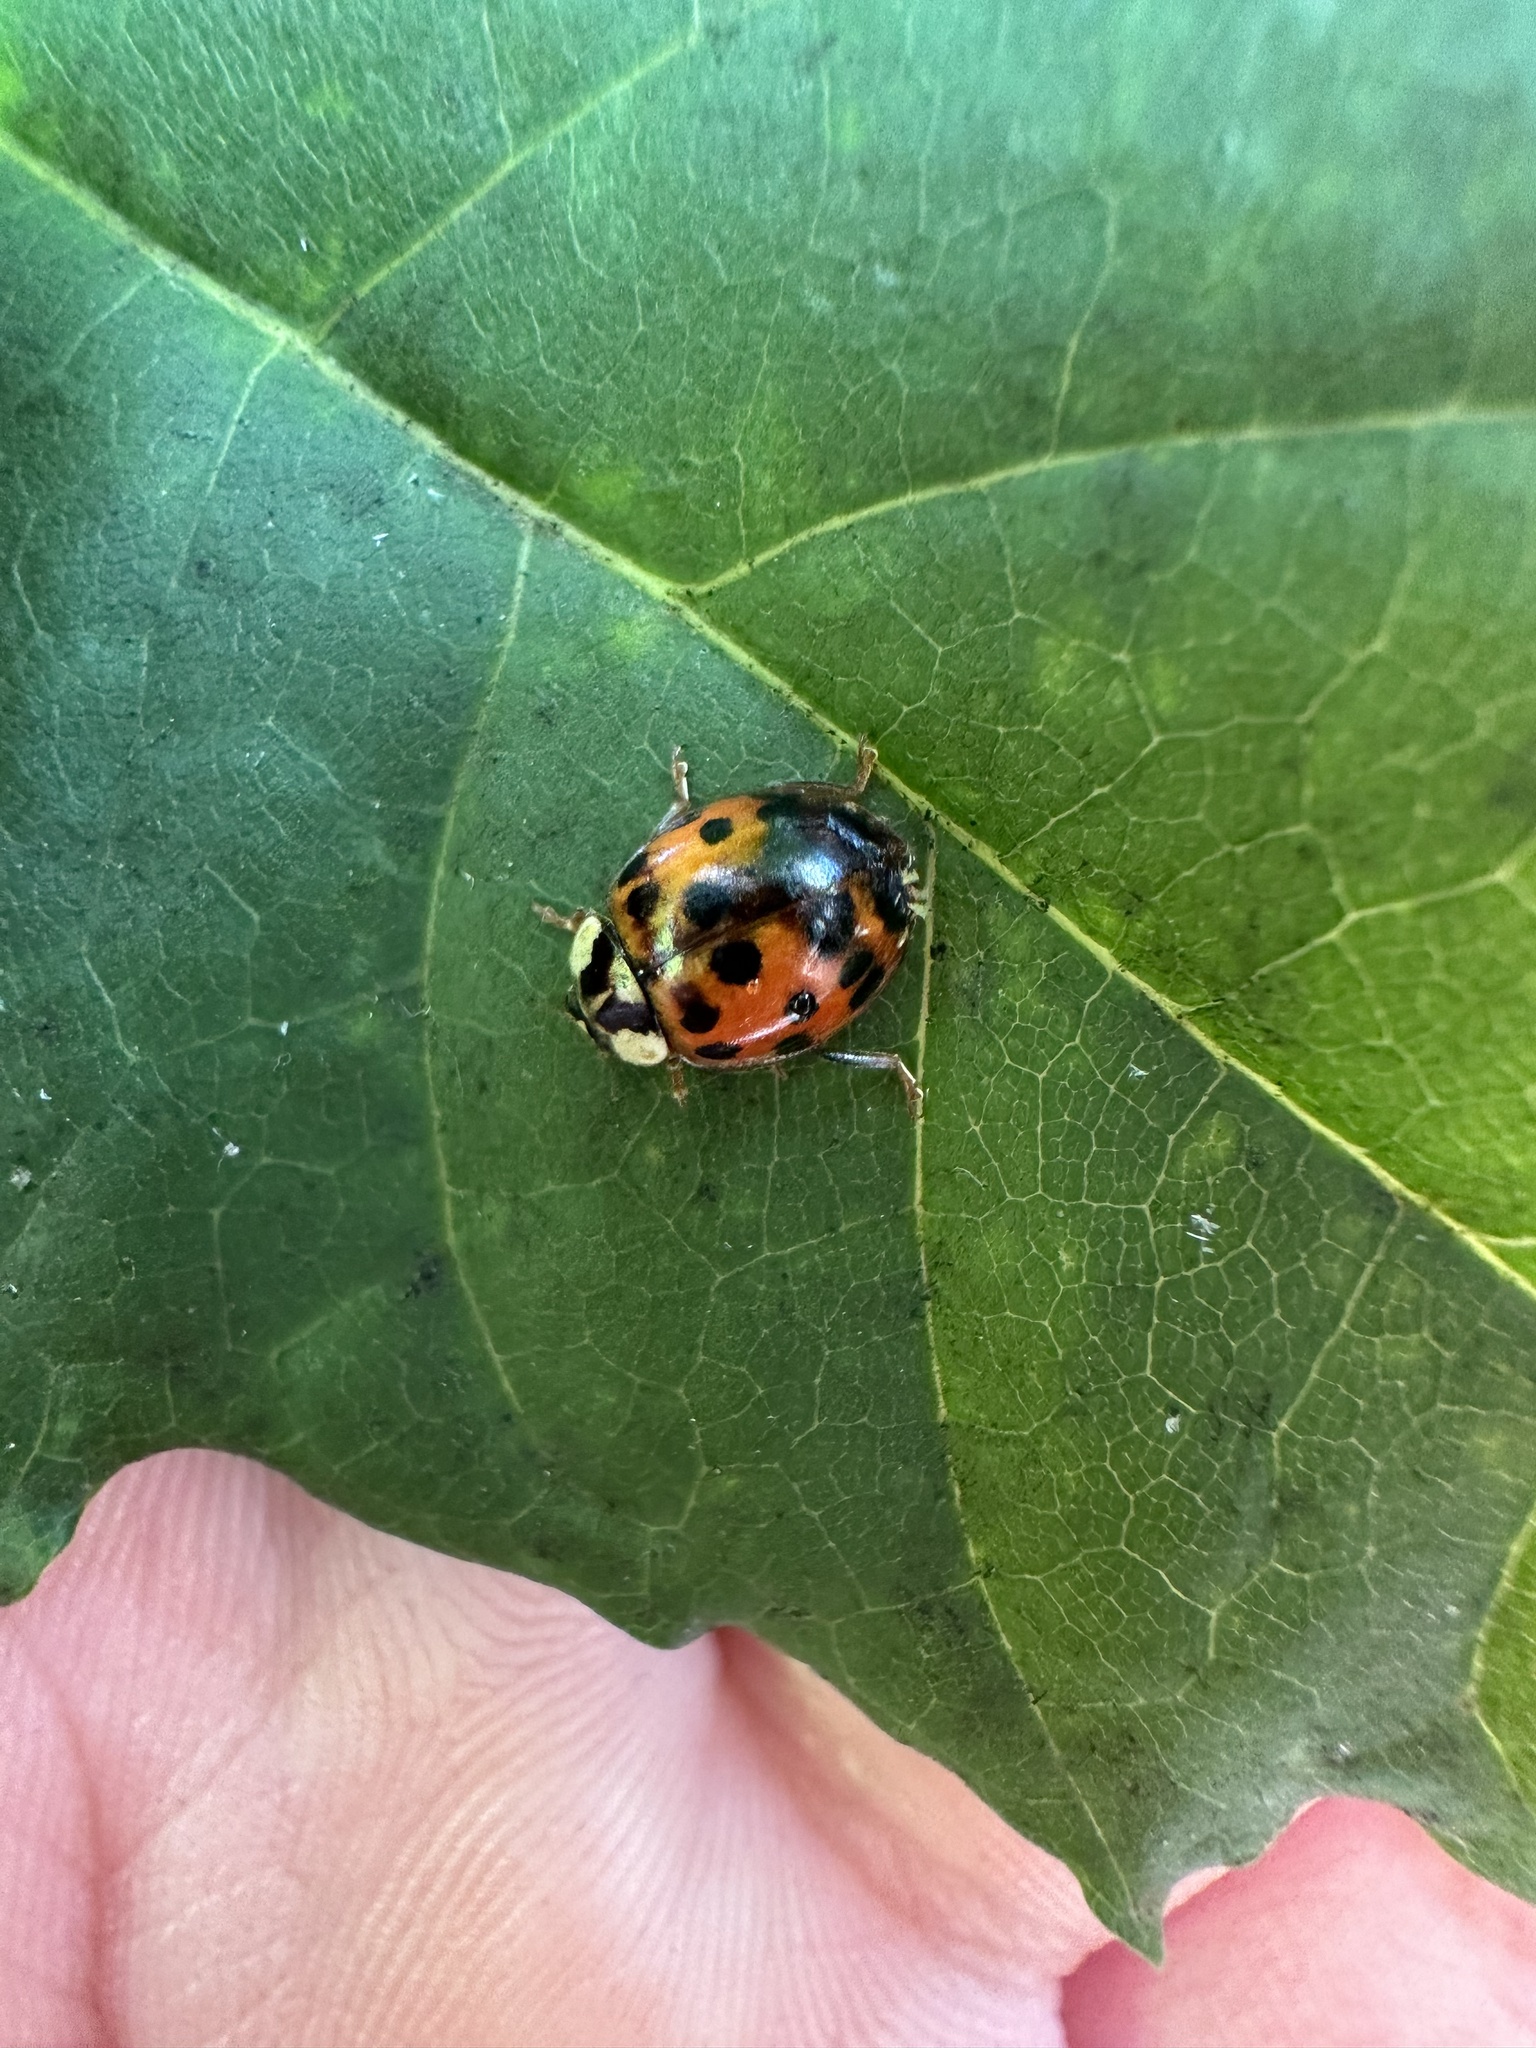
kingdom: Animalia
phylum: Arthropoda
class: Insecta
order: Coleoptera
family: Coccinellidae
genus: Harmonia
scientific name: Harmonia axyridis
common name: Harlequin ladybird
